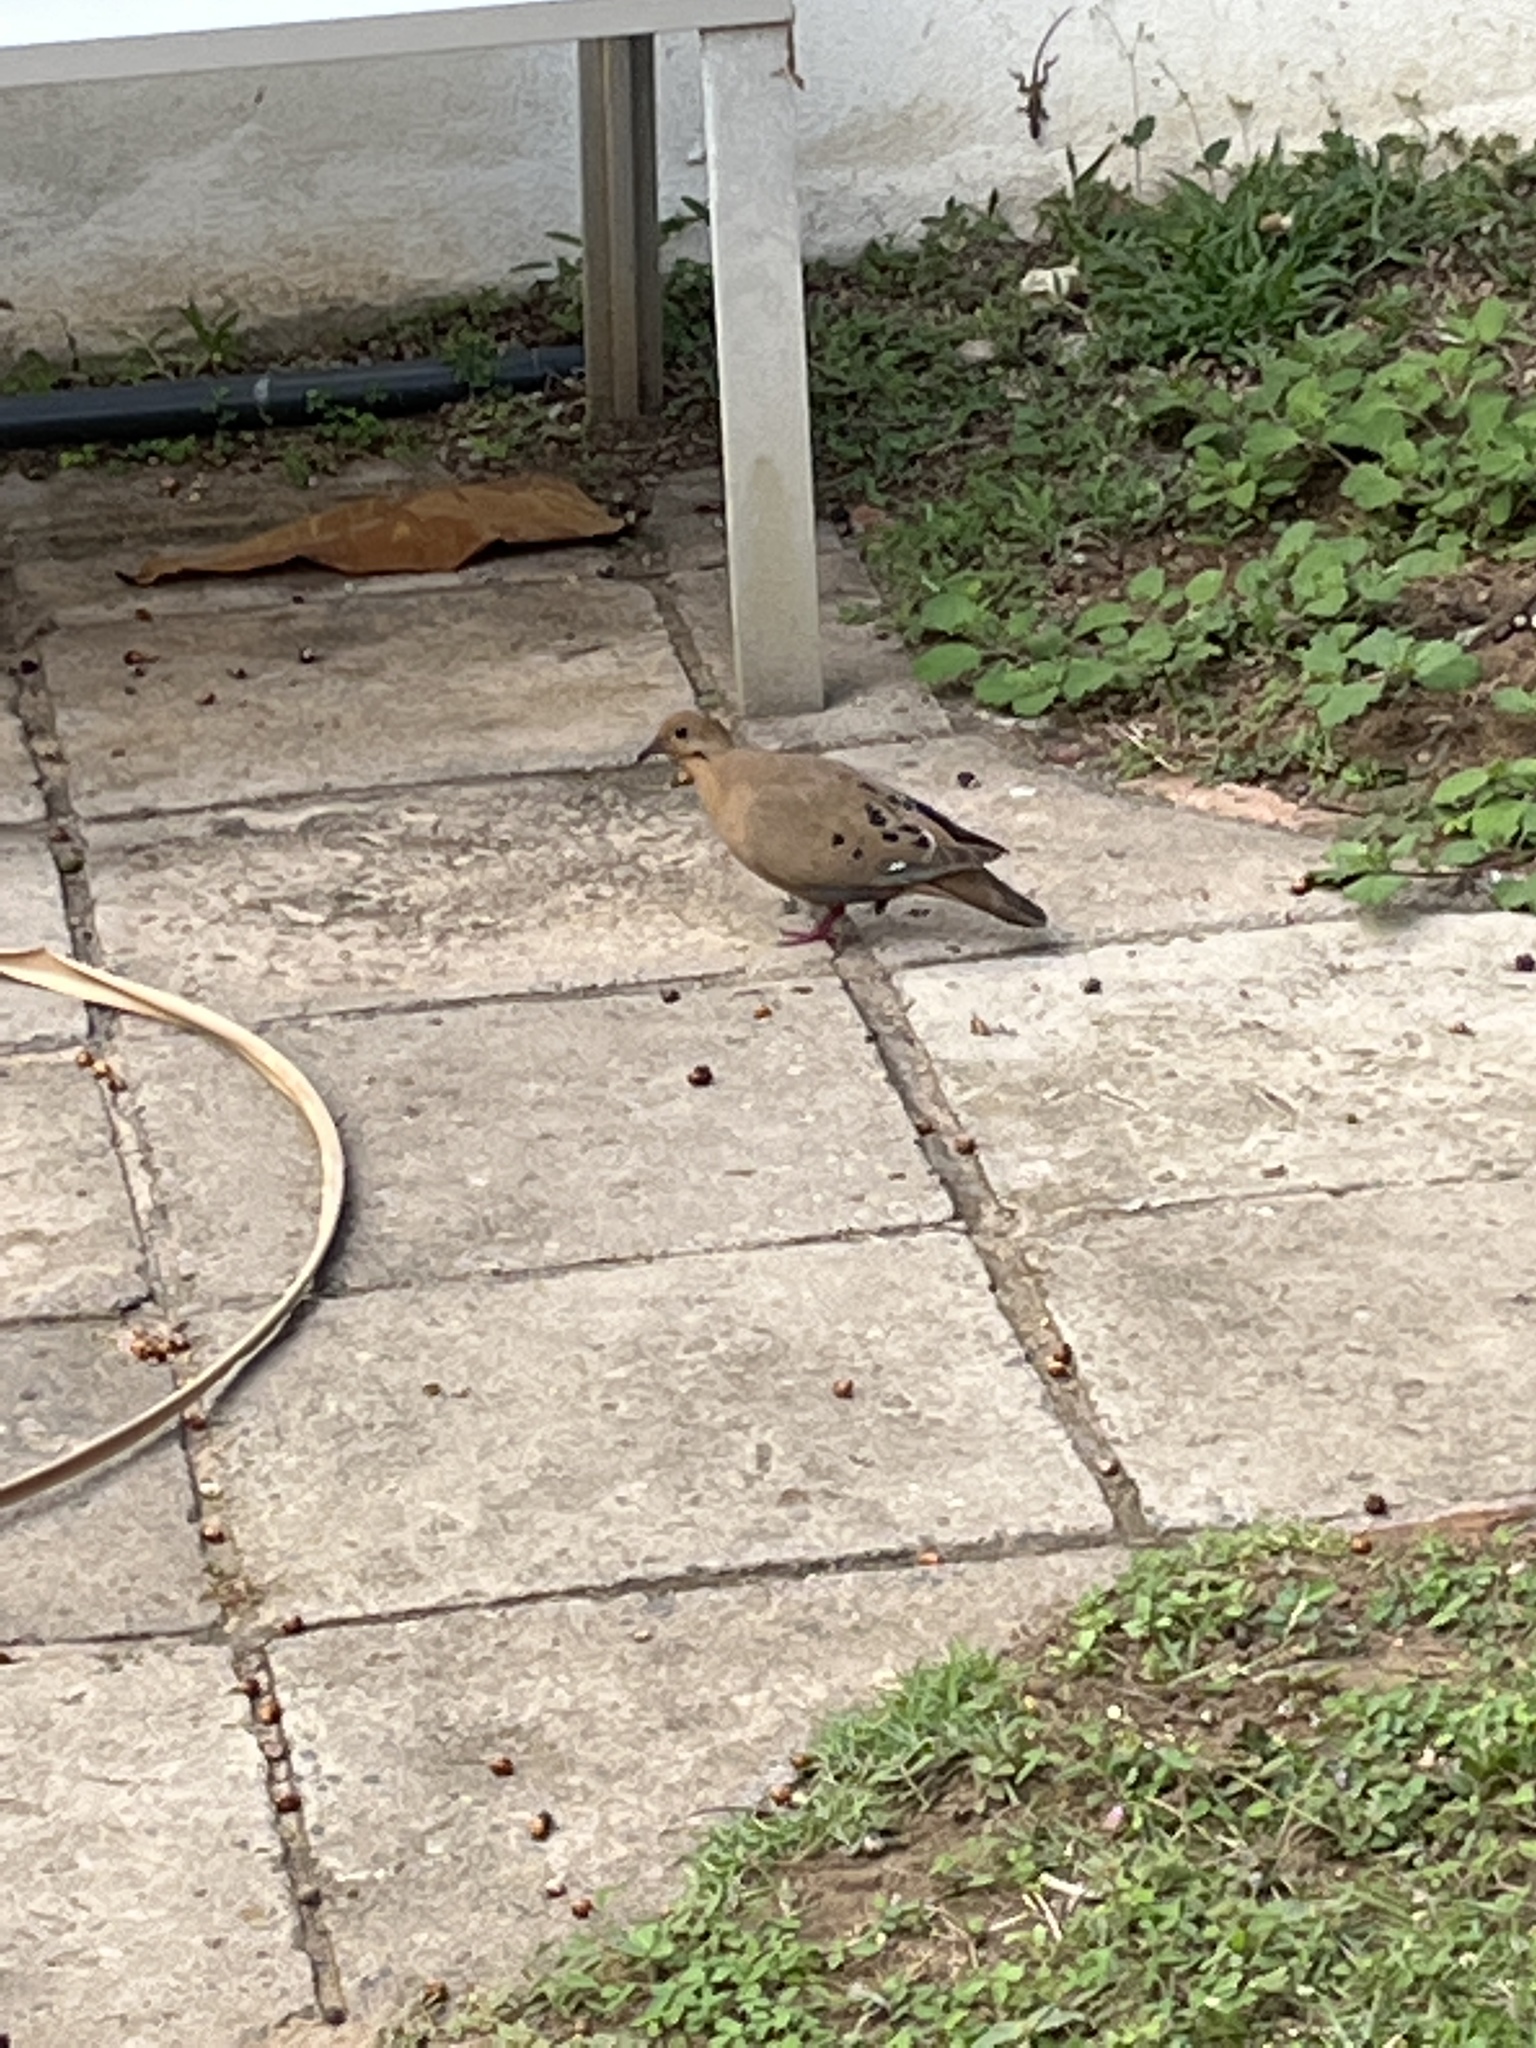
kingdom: Animalia
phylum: Chordata
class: Aves
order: Columbiformes
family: Columbidae
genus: Zenaida
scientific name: Zenaida aurita
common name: Zenaida dove
